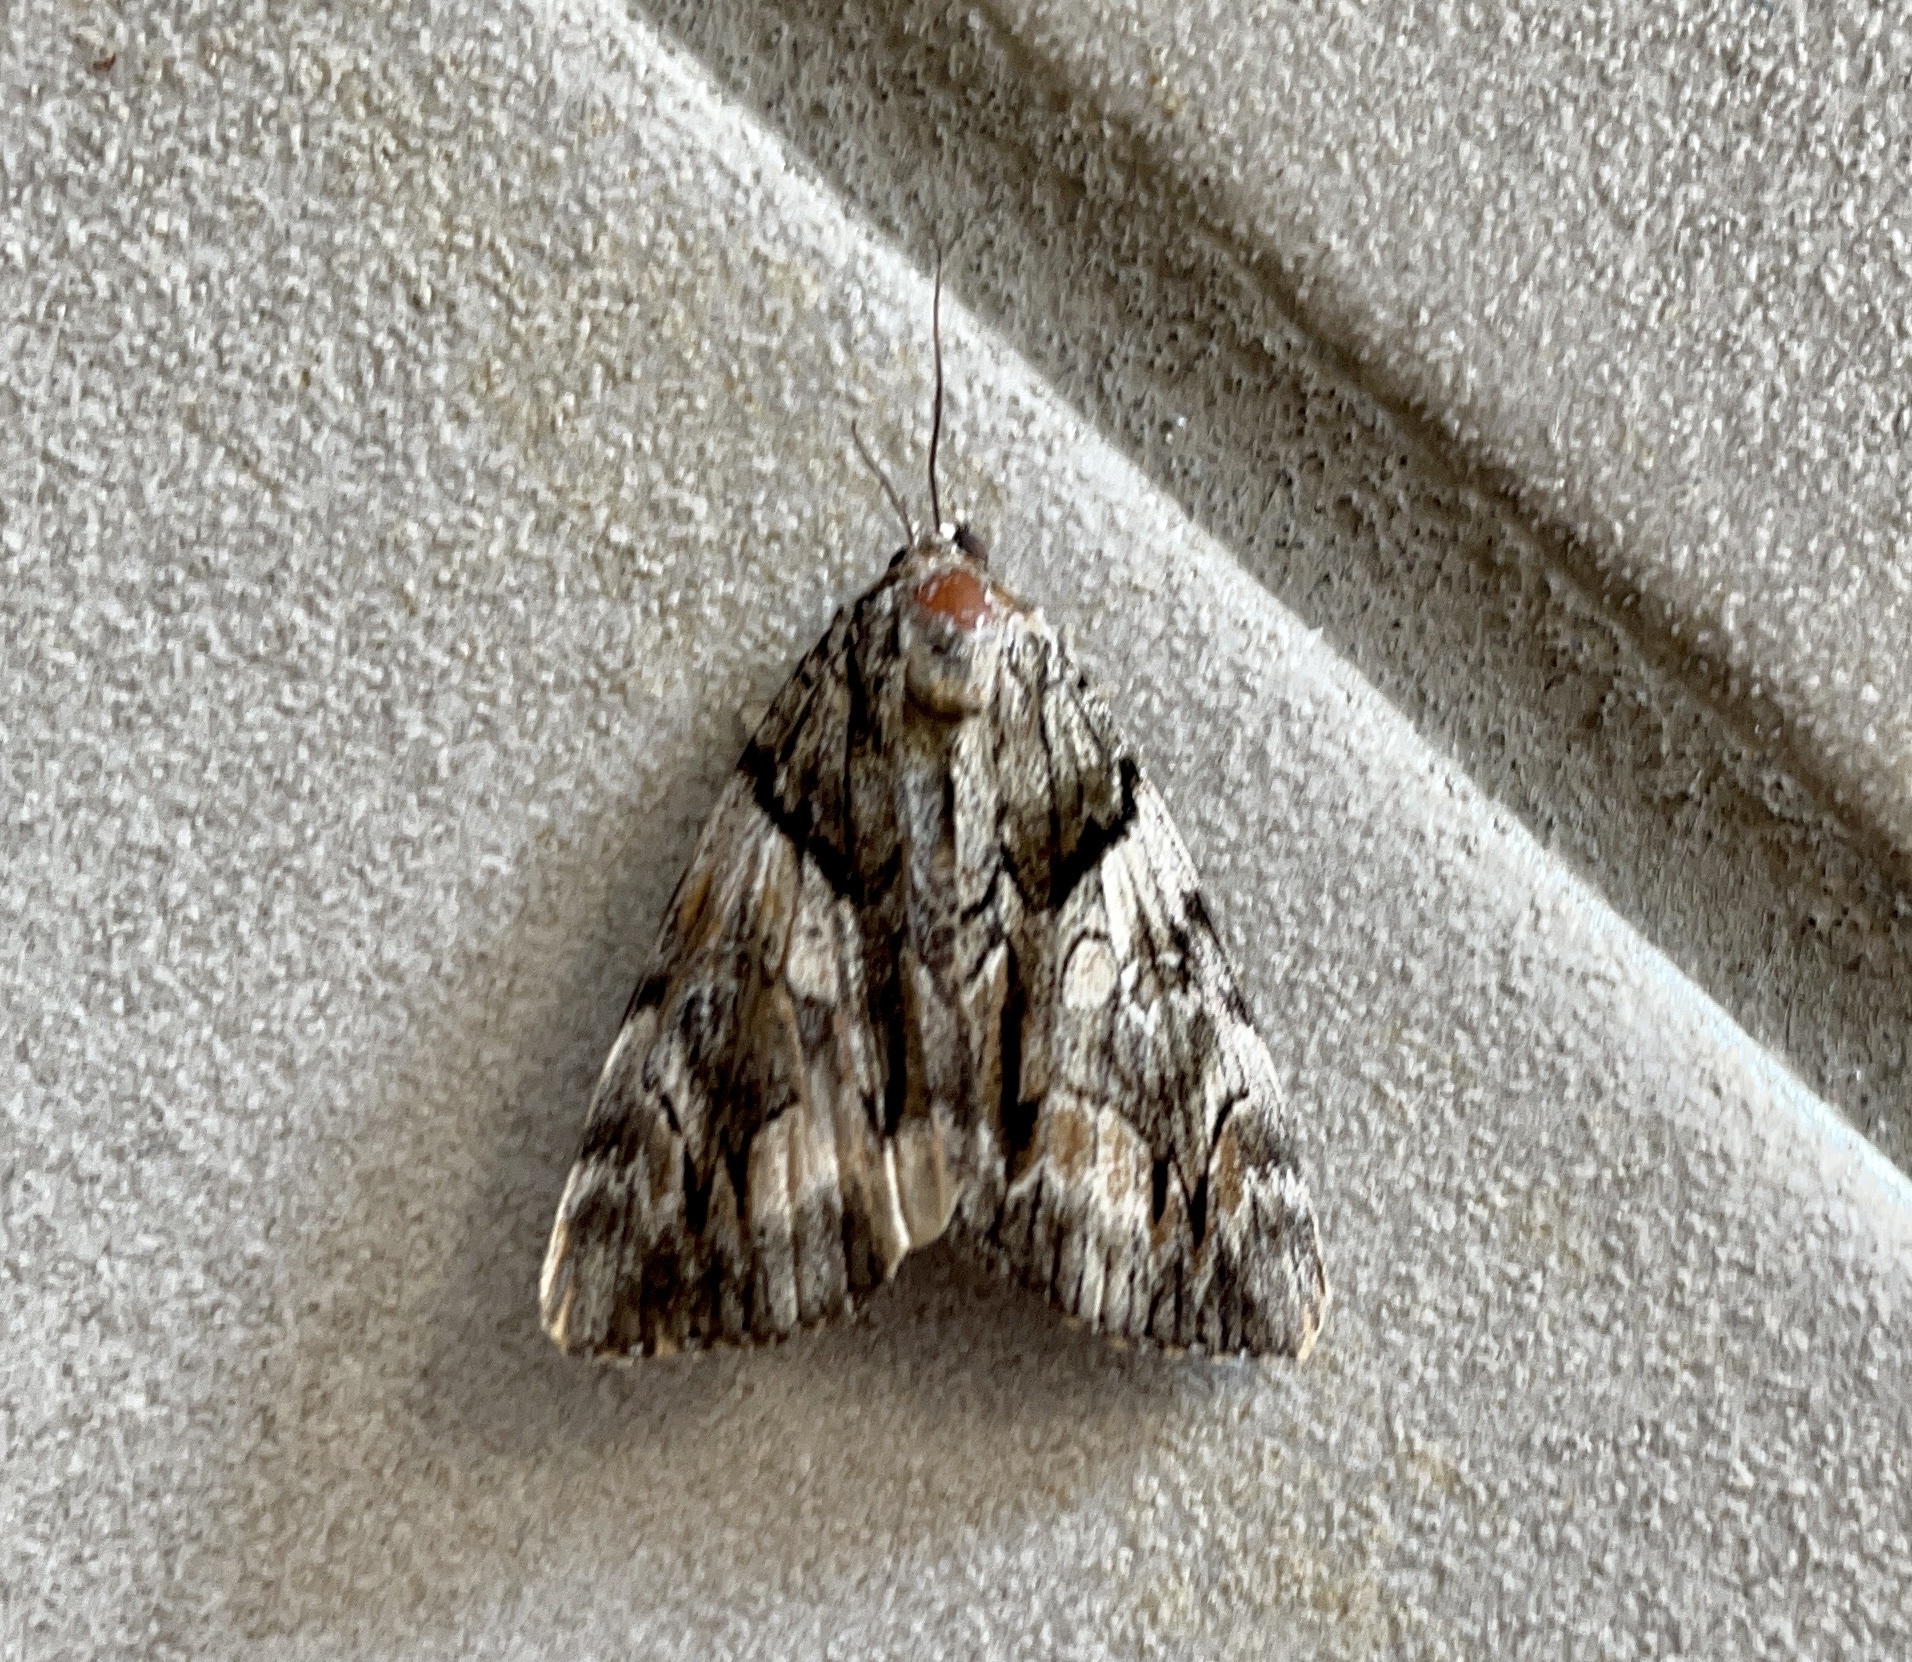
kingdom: Animalia
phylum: Arthropoda
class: Insecta
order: Lepidoptera
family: Erebidae
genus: Catocala
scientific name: Catocala blandula
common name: Charming underwing
